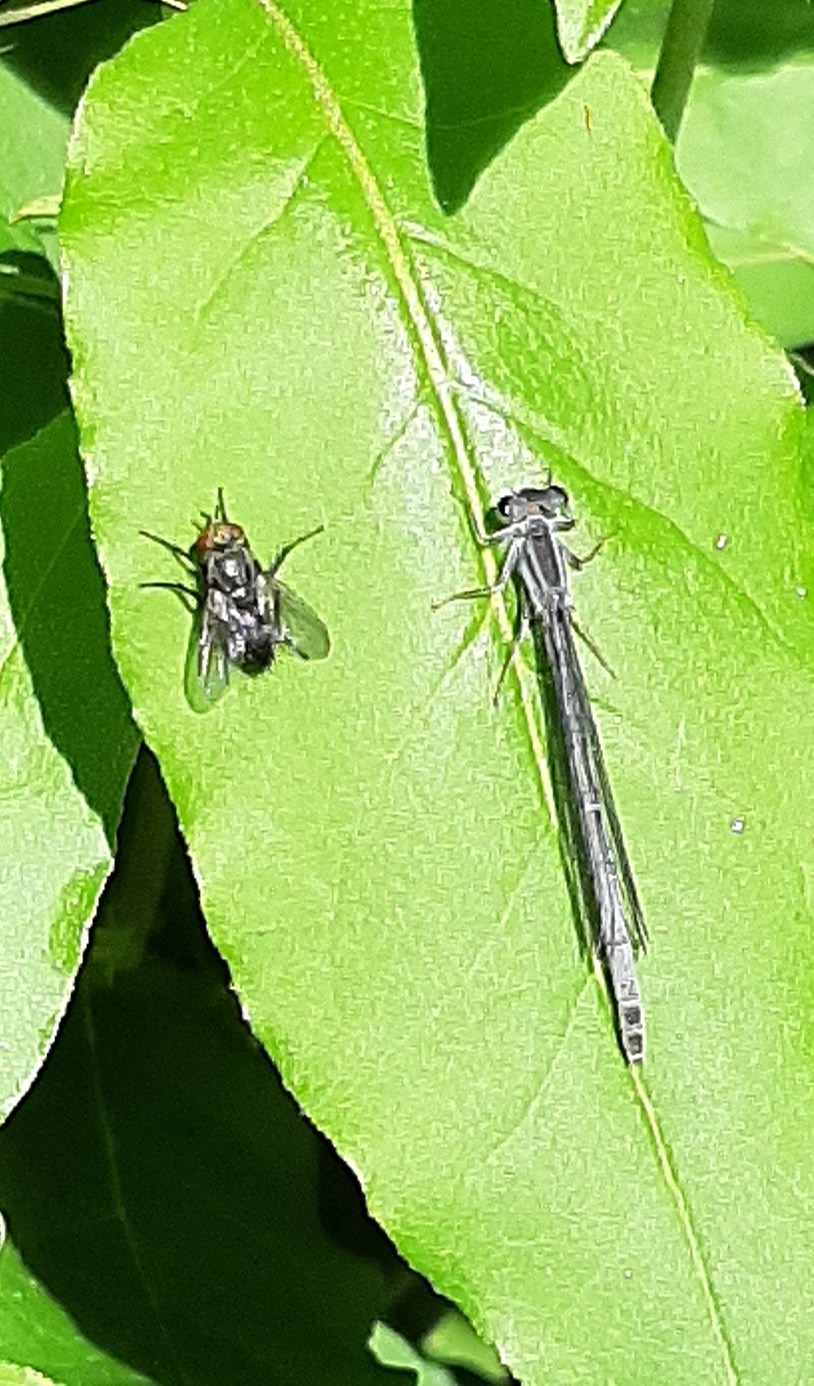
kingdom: Animalia
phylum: Arthropoda
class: Insecta
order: Odonata
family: Coenagrionidae
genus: Ischnura
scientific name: Ischnura verticalis
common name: Eastern forktail
